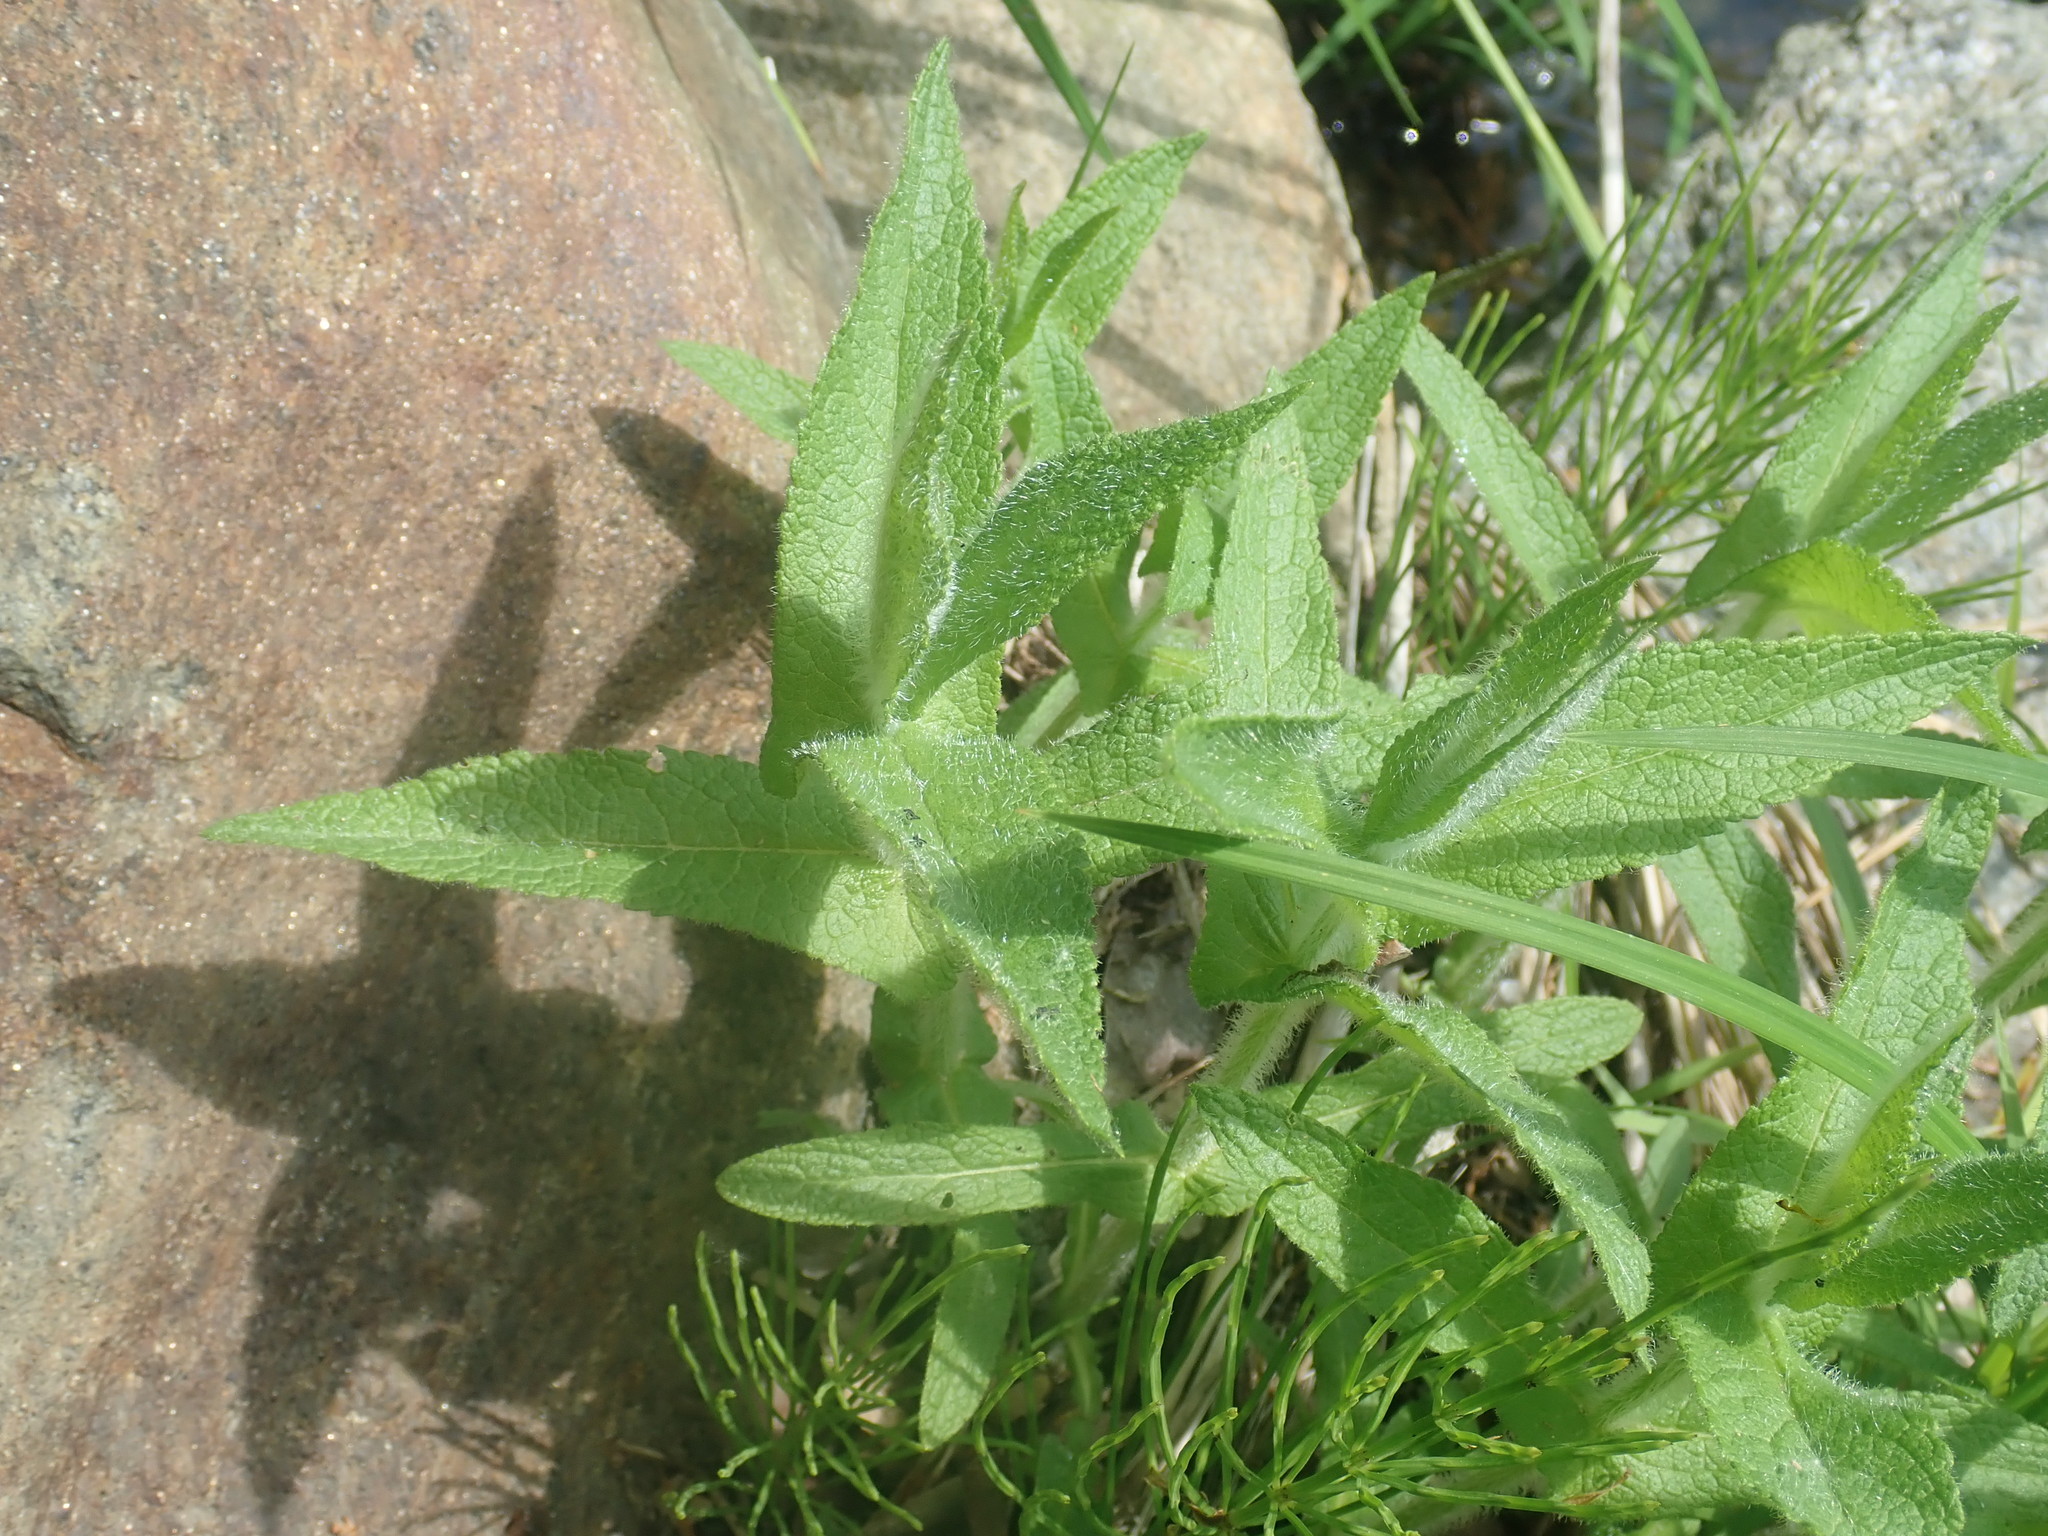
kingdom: Plantae
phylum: Tracheophyta
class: Magnoliopsida
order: Asterales
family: Asteraceae
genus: Eupatorium
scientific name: Eupatorium perfoliatum
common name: Boneset
